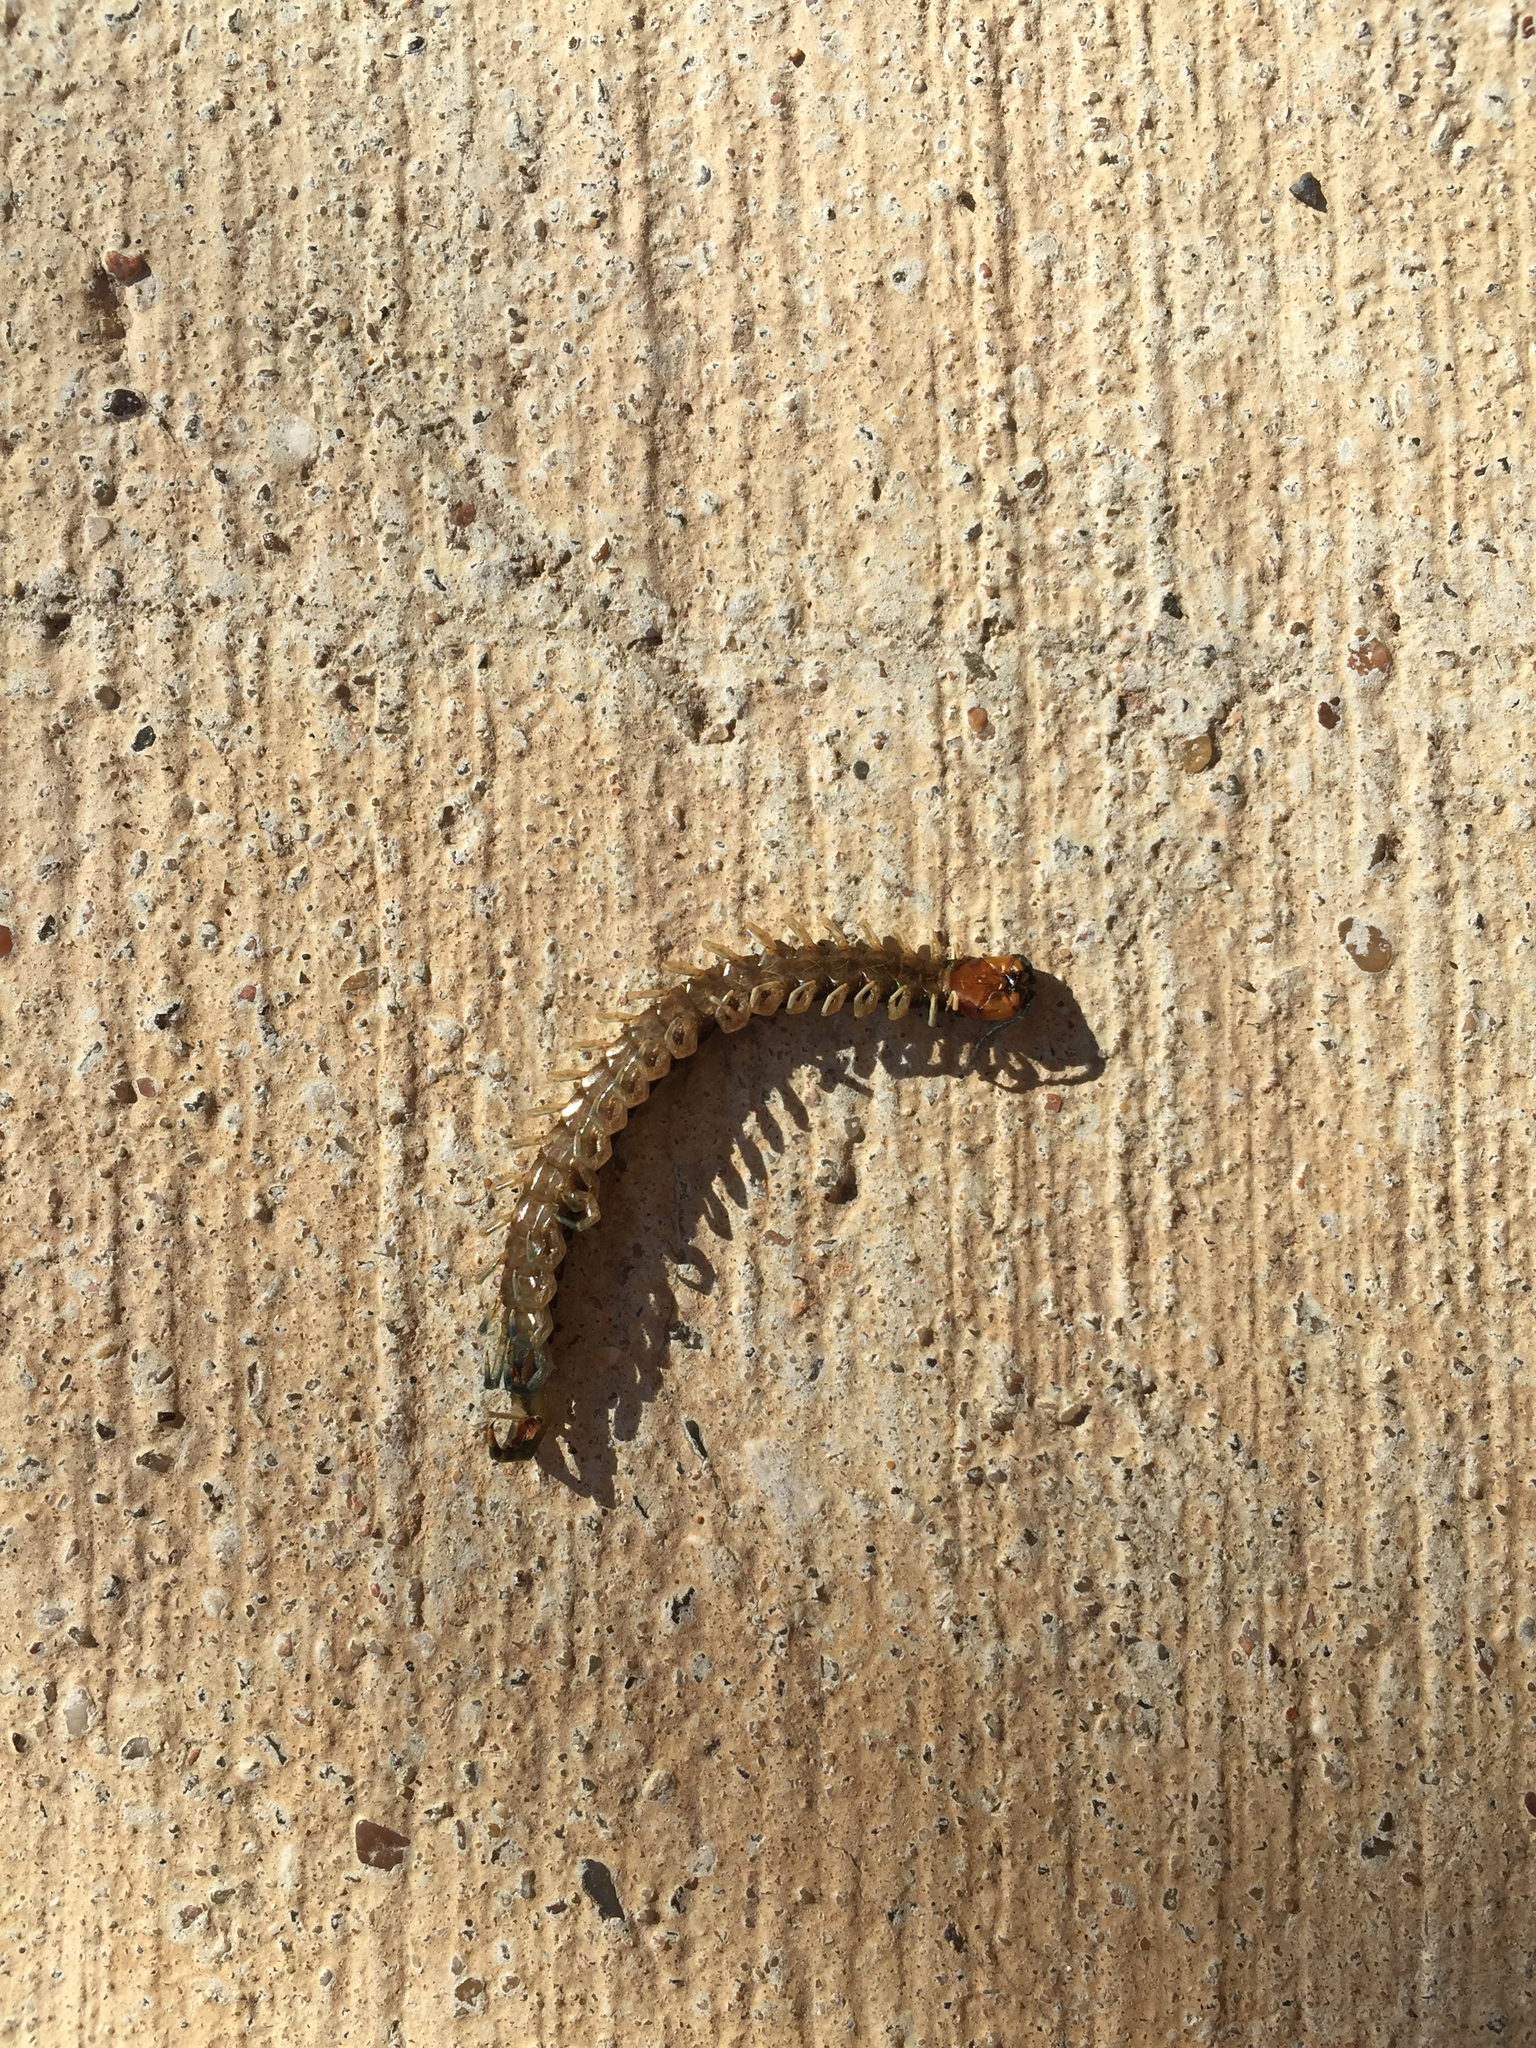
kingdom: Animalia
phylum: Arthropoda
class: Chilopoda
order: Scolopendromorpha
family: Scolopendridae
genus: Hemiscolopendra
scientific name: Hemiscolopendra marginata
